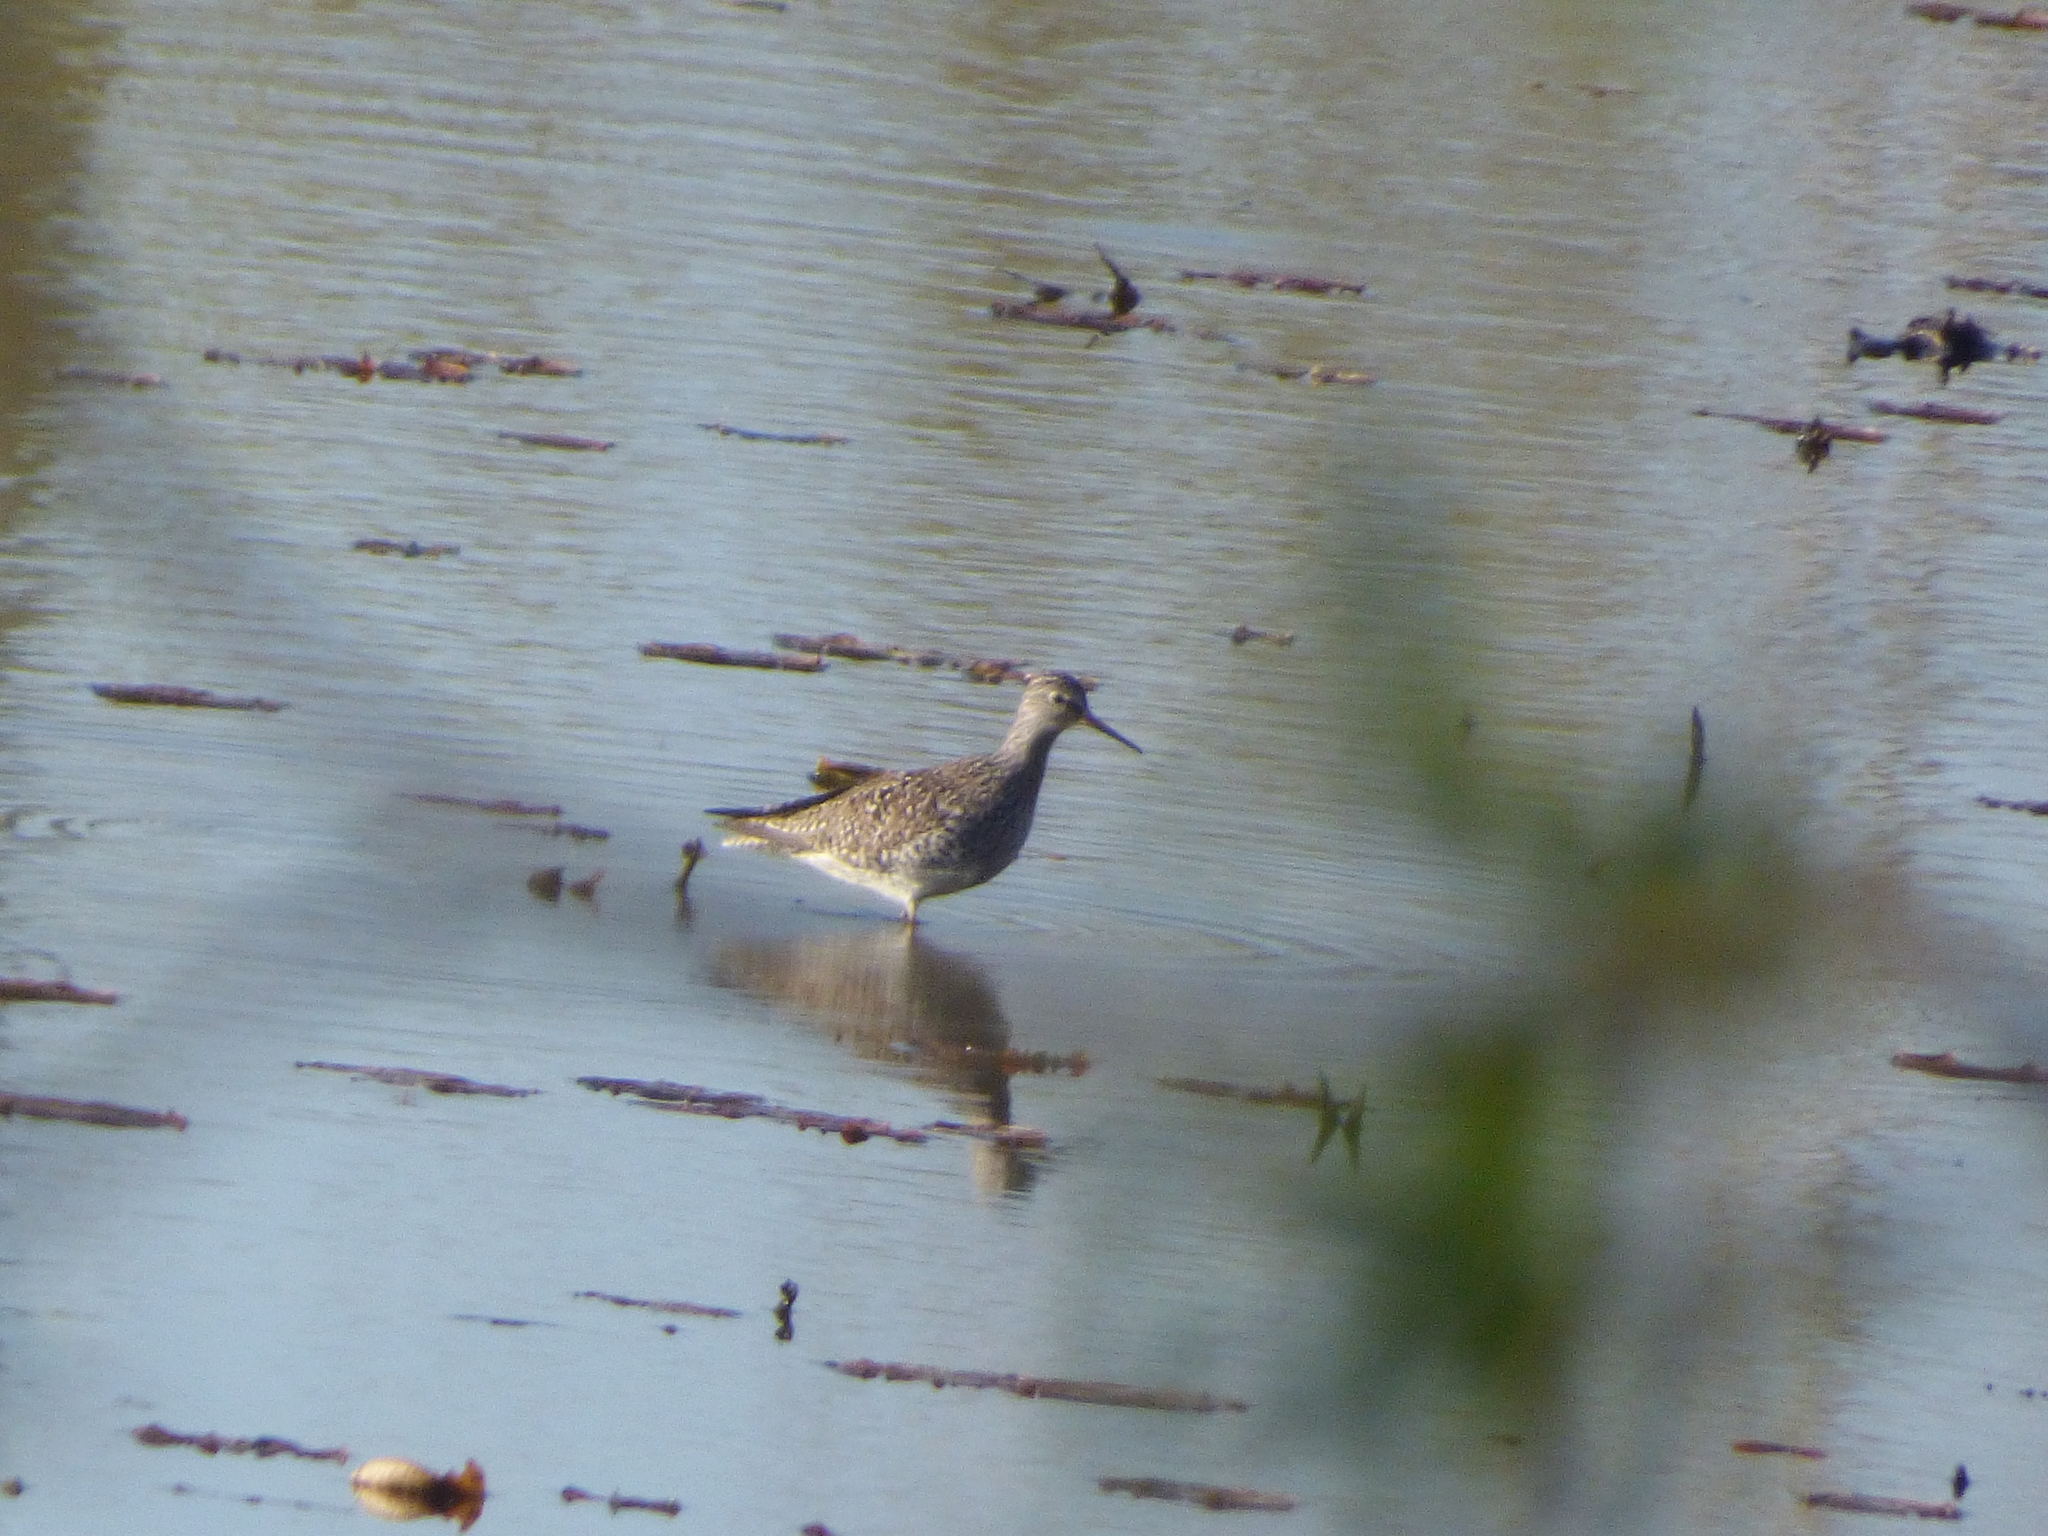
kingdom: Animalia
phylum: Chordata
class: Aves
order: Charadriiformes
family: Scolopacidae
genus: Tringa
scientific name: Tringa flavipes
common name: Lesser yellowlegs
